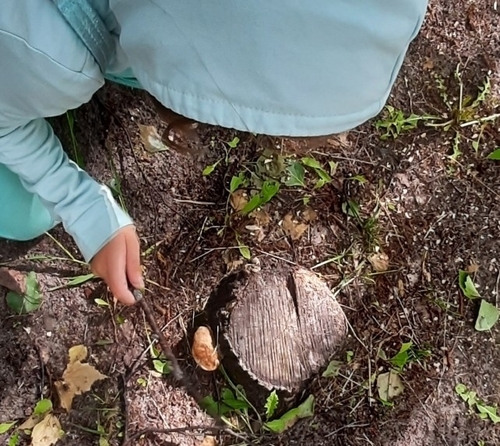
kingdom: Fungi
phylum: Basidiomycota
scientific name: Basidiomycota
